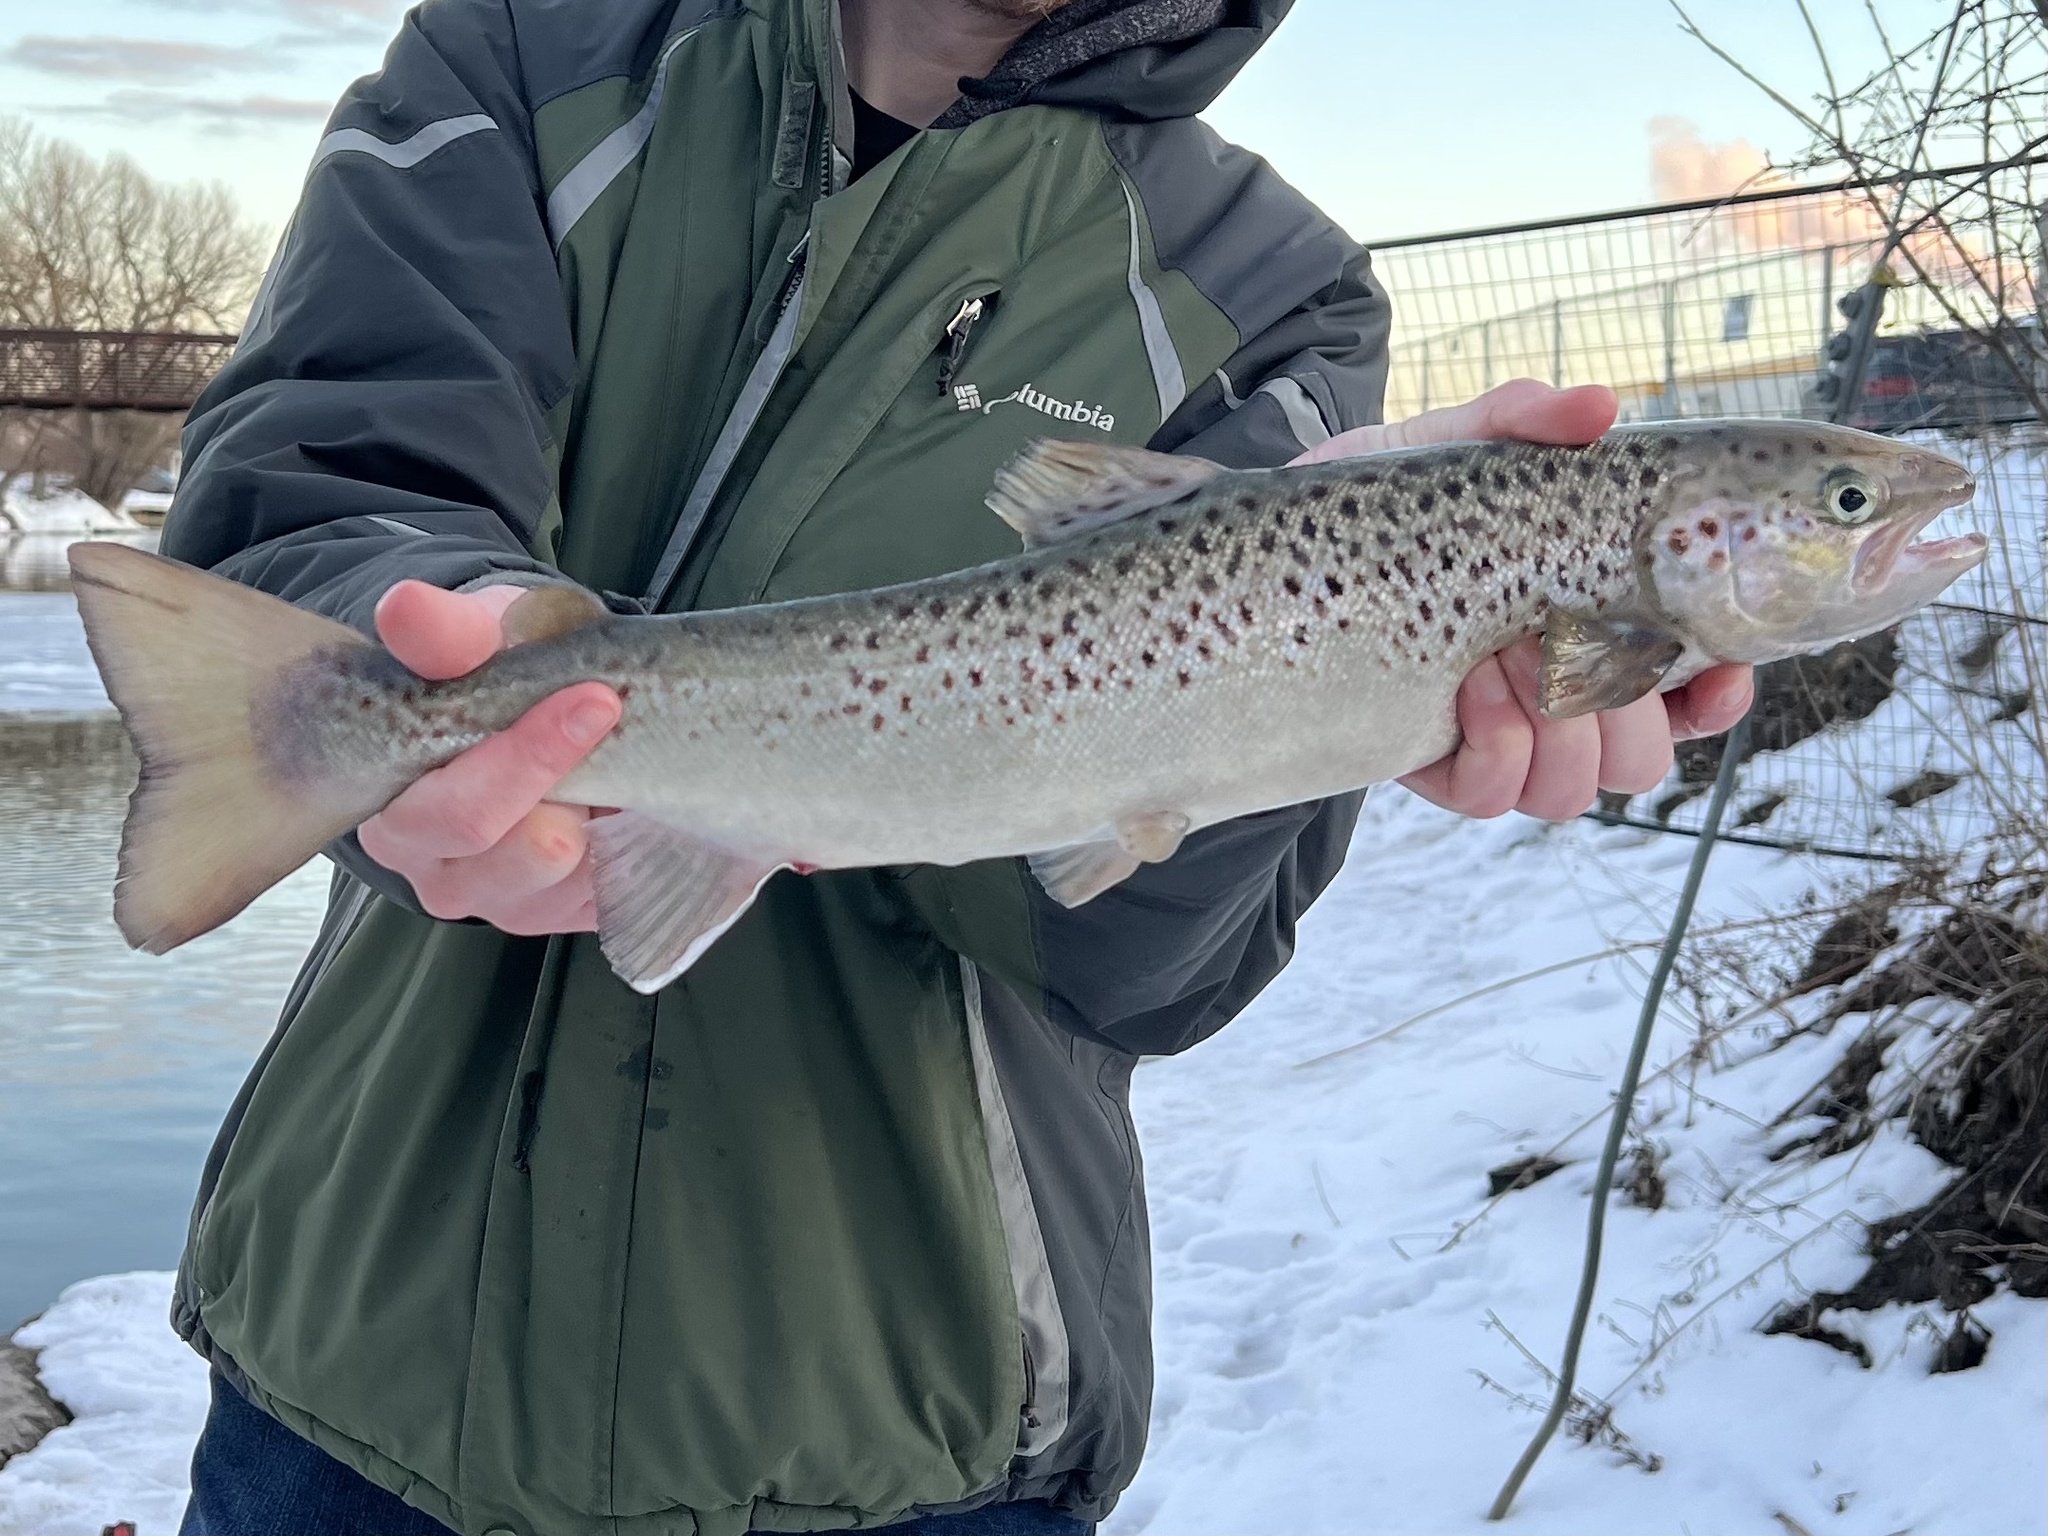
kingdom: Animalia
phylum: Chordata
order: Salmoniformes
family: Salmonidae
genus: Salmo
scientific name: Salmo salar
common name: Atlantic salmon
